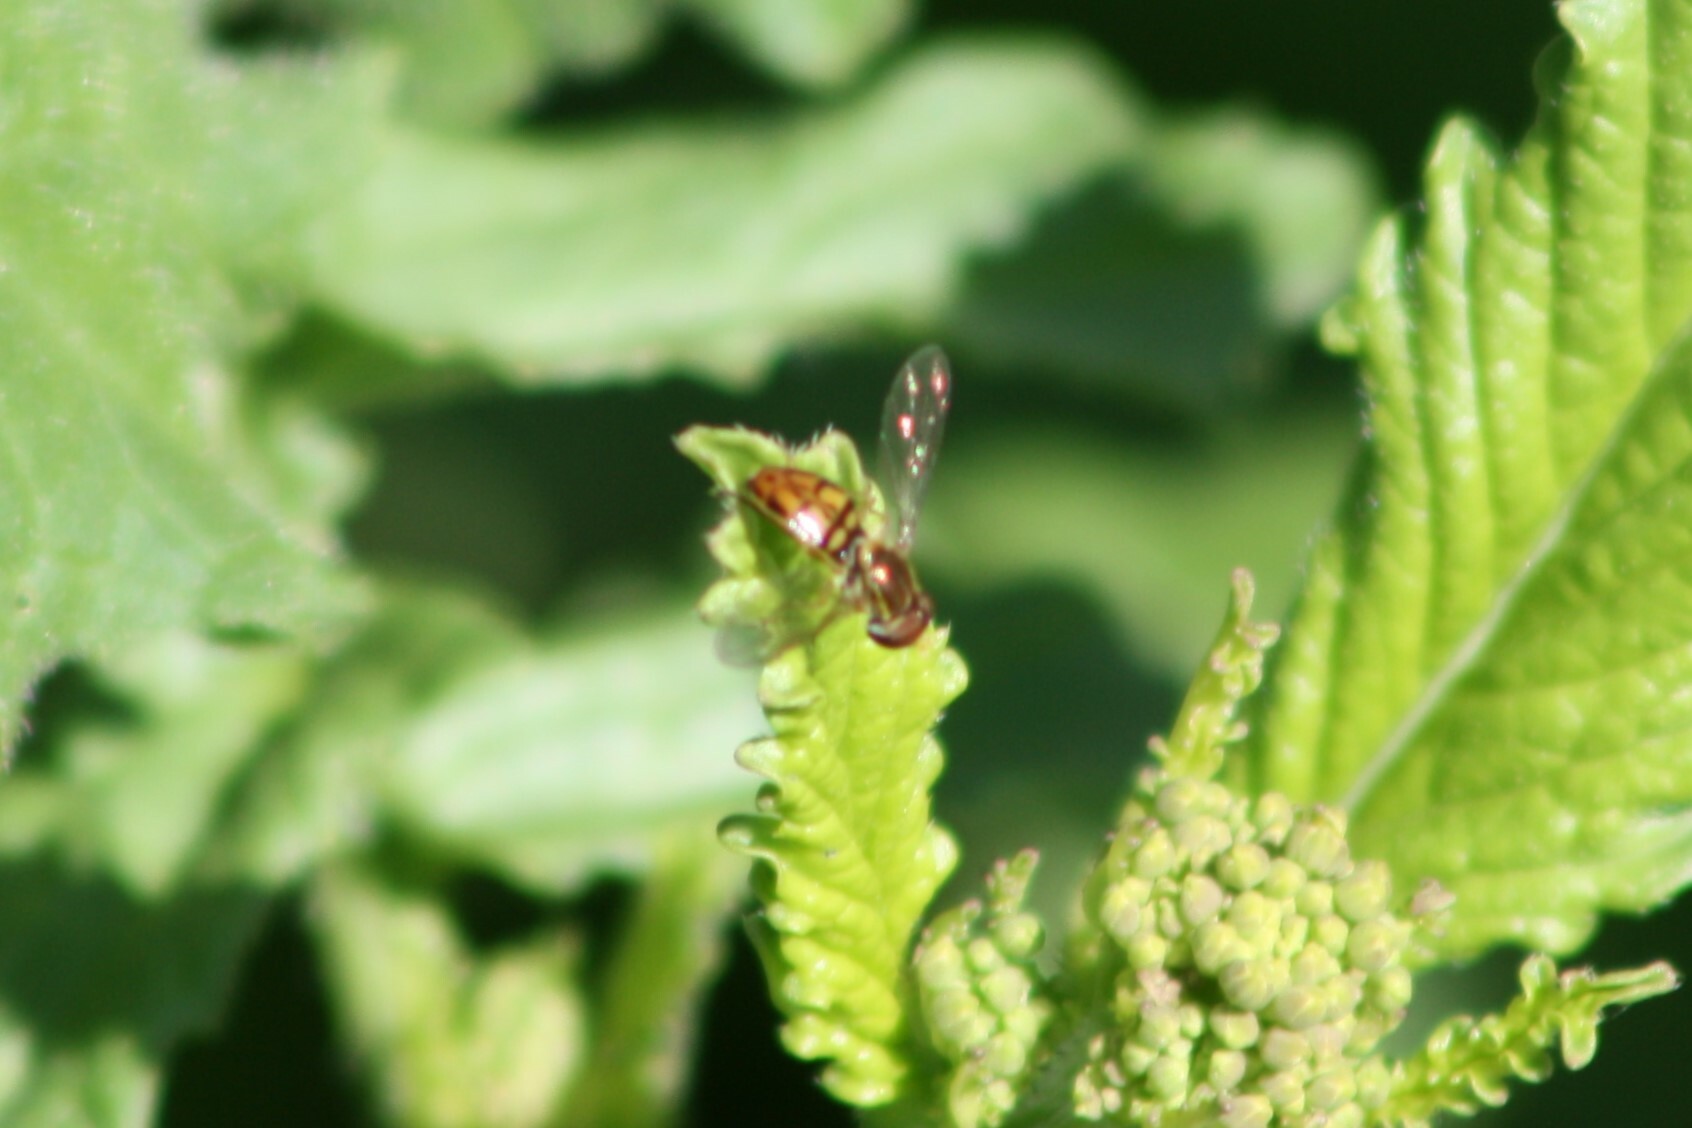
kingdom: Animalia
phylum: Arthropoda
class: Insecta
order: Diptera
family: Syrphidae
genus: Toxomerus
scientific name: Toxomerus marginatus
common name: Syrphid fly
